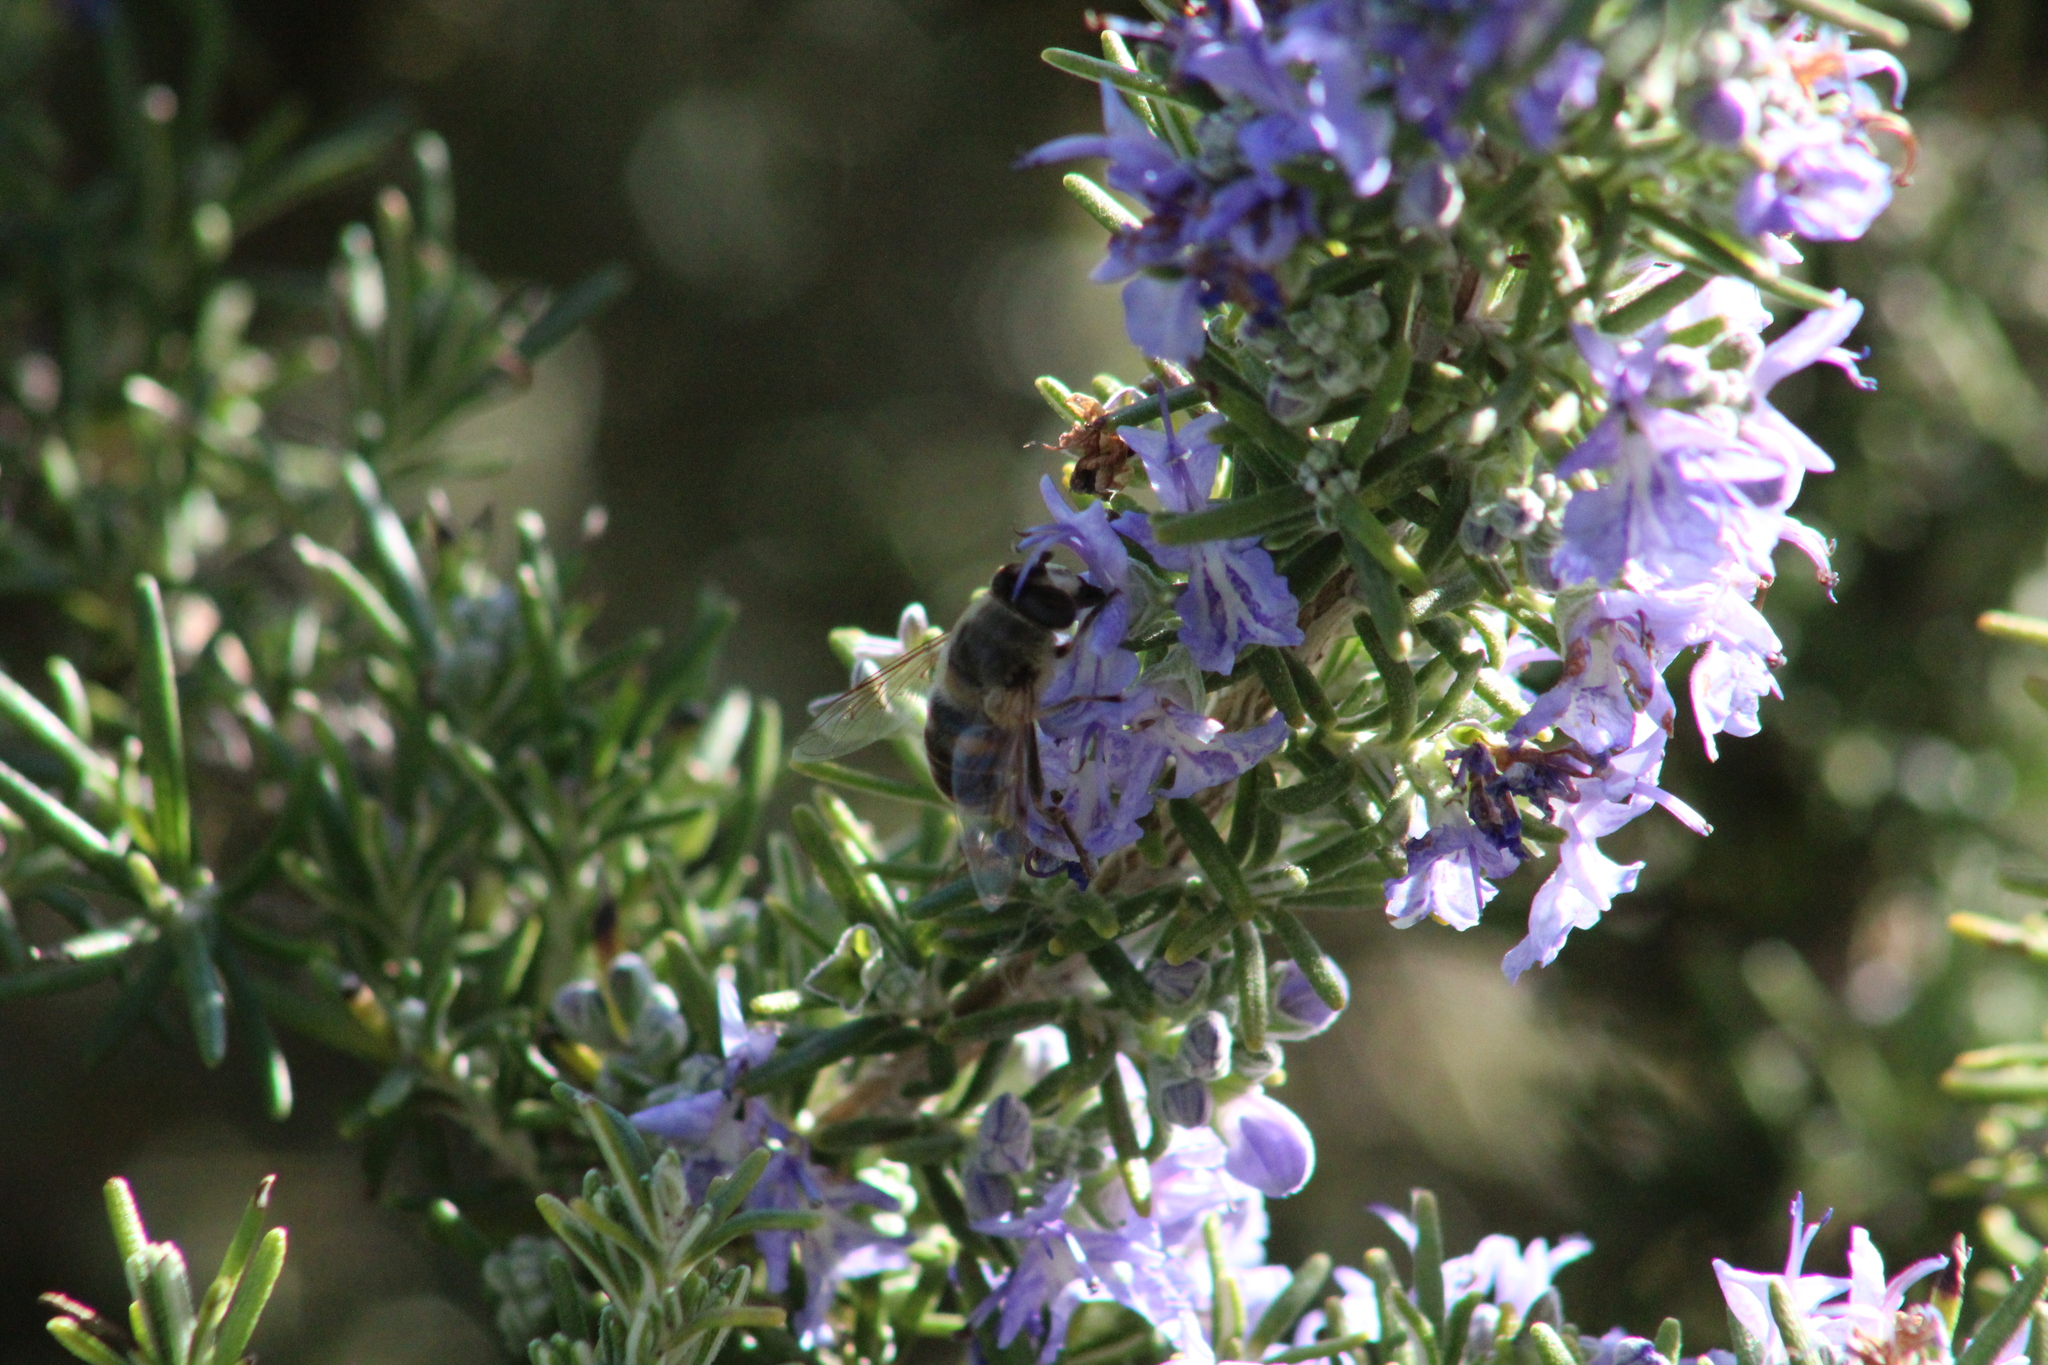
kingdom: Animalia
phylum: Arthropoda
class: Insecta
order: Diptera
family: Syrphidae
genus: Eristalis
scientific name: Eristalis tenax
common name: Drone fly
